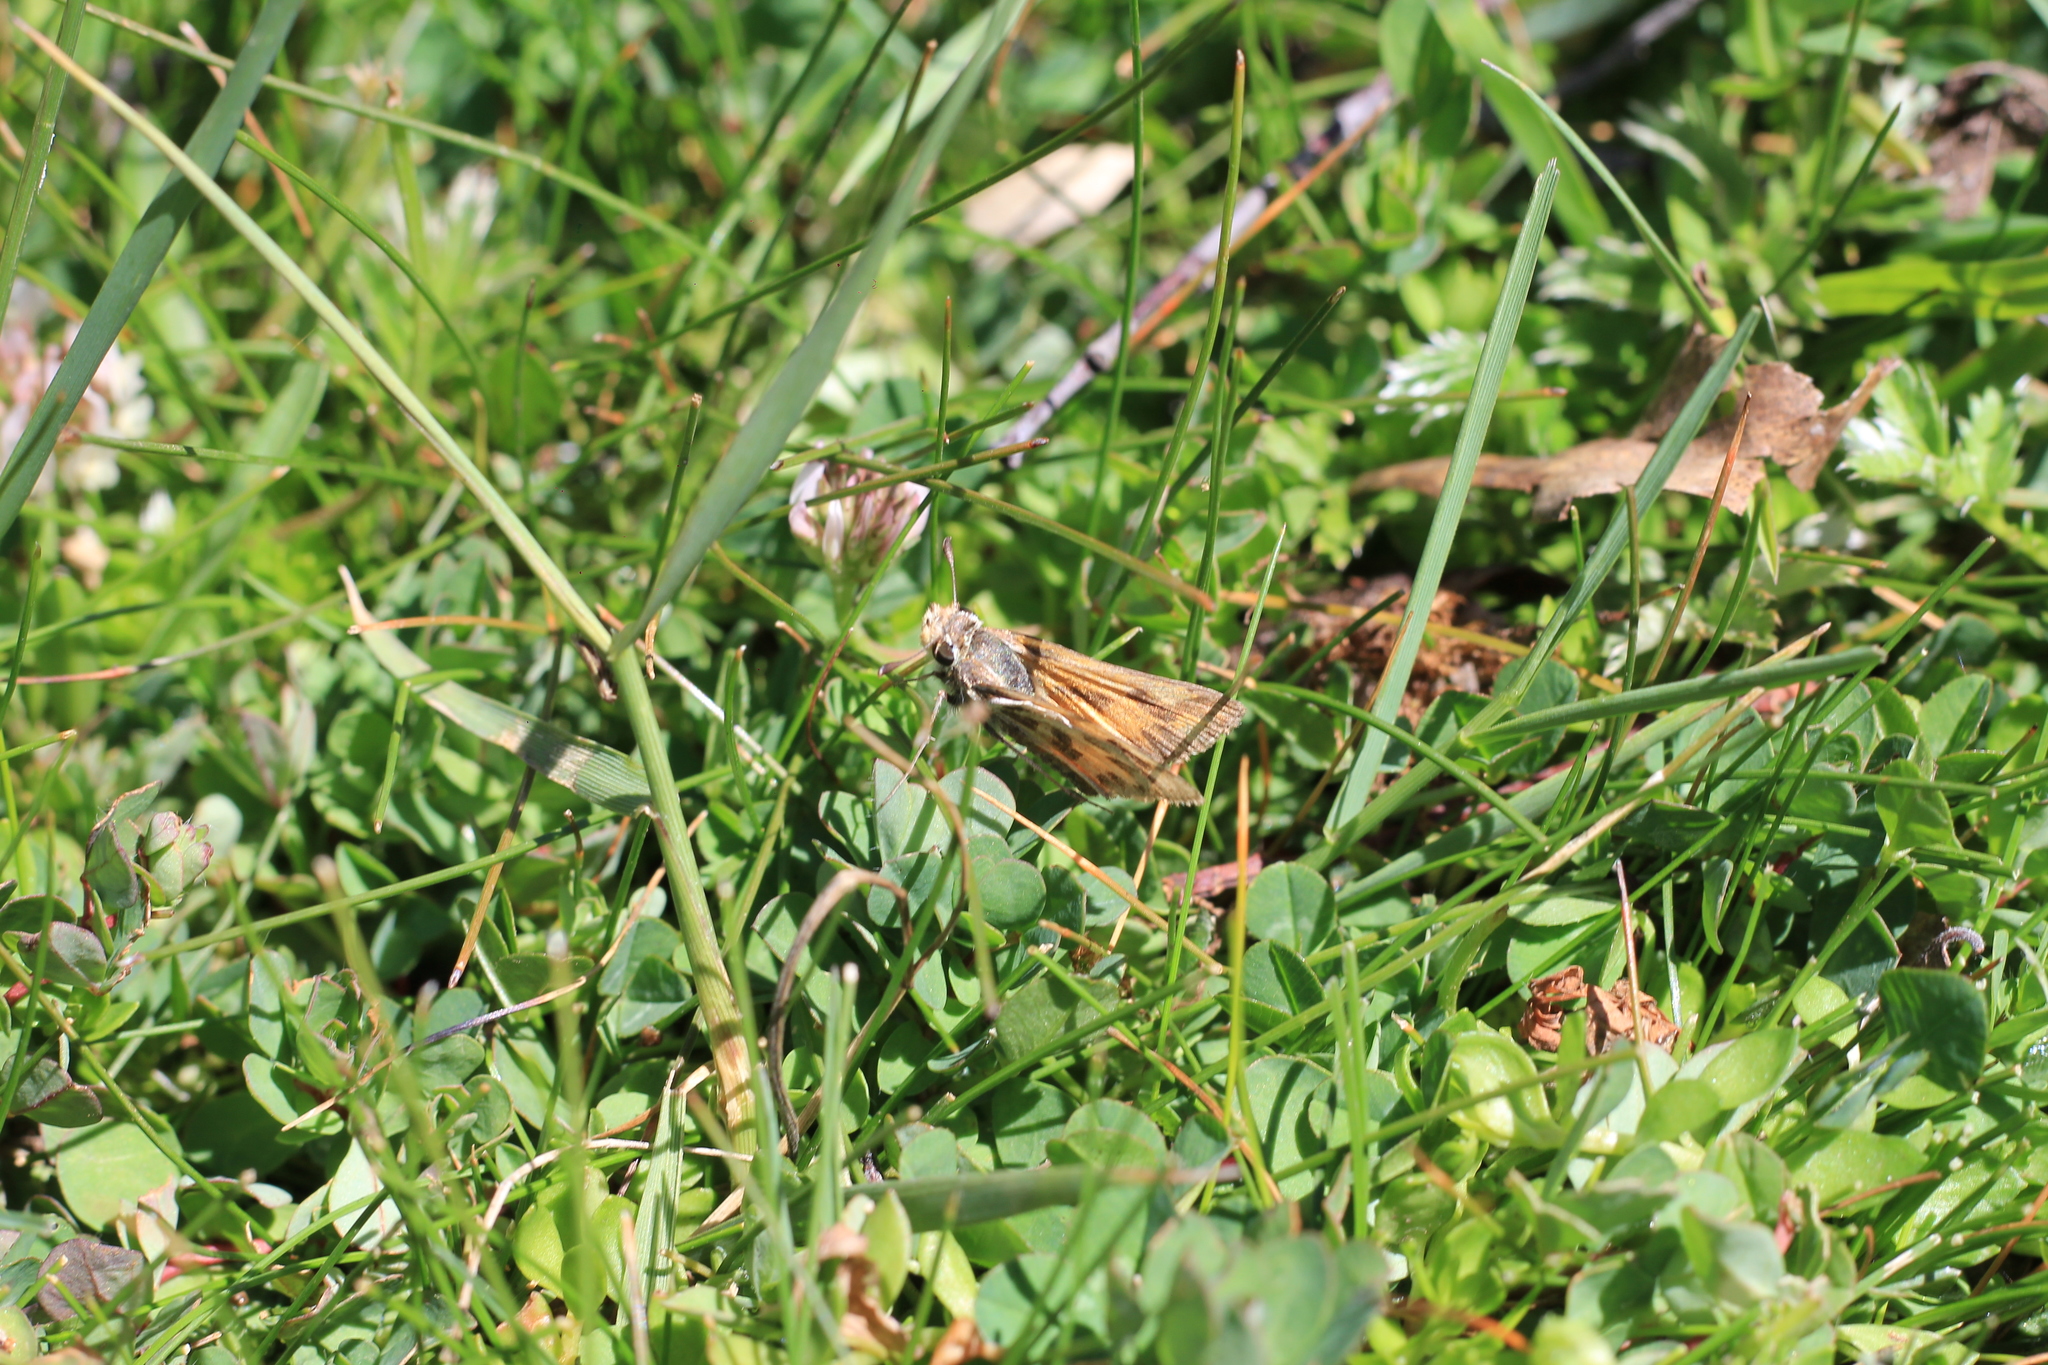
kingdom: Animalia
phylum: Arthropoda
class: Insecta
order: Lepidoptera
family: Hesperiidae
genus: Hylephila
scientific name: Hylephila fasciolata
